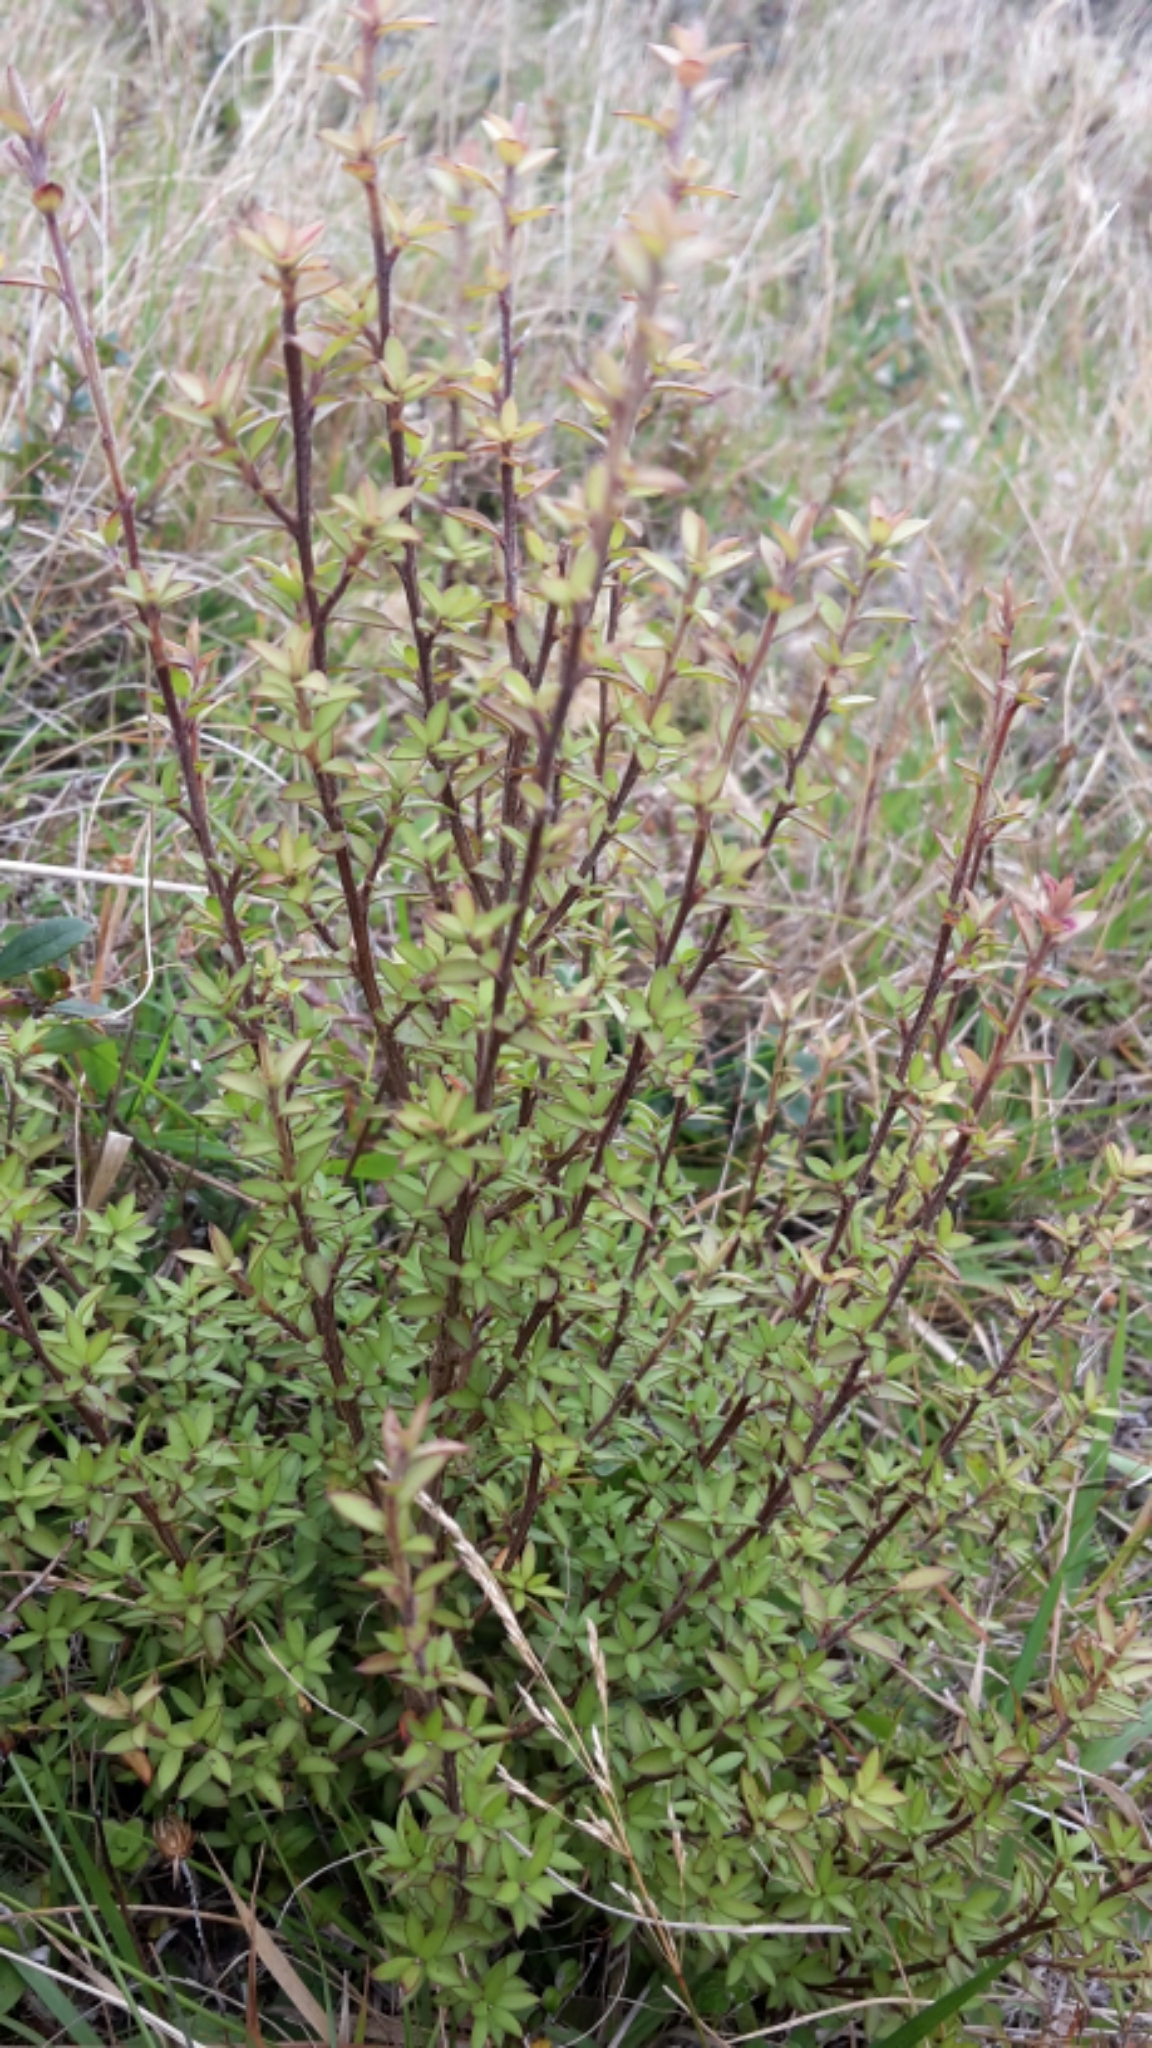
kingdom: Plantae
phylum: Tracheophyta
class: Magnoliopsida
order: Myrtales
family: Myrtaceae
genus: Leptospermum
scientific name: Leptospermum scoparium
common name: Broom tea-tree
